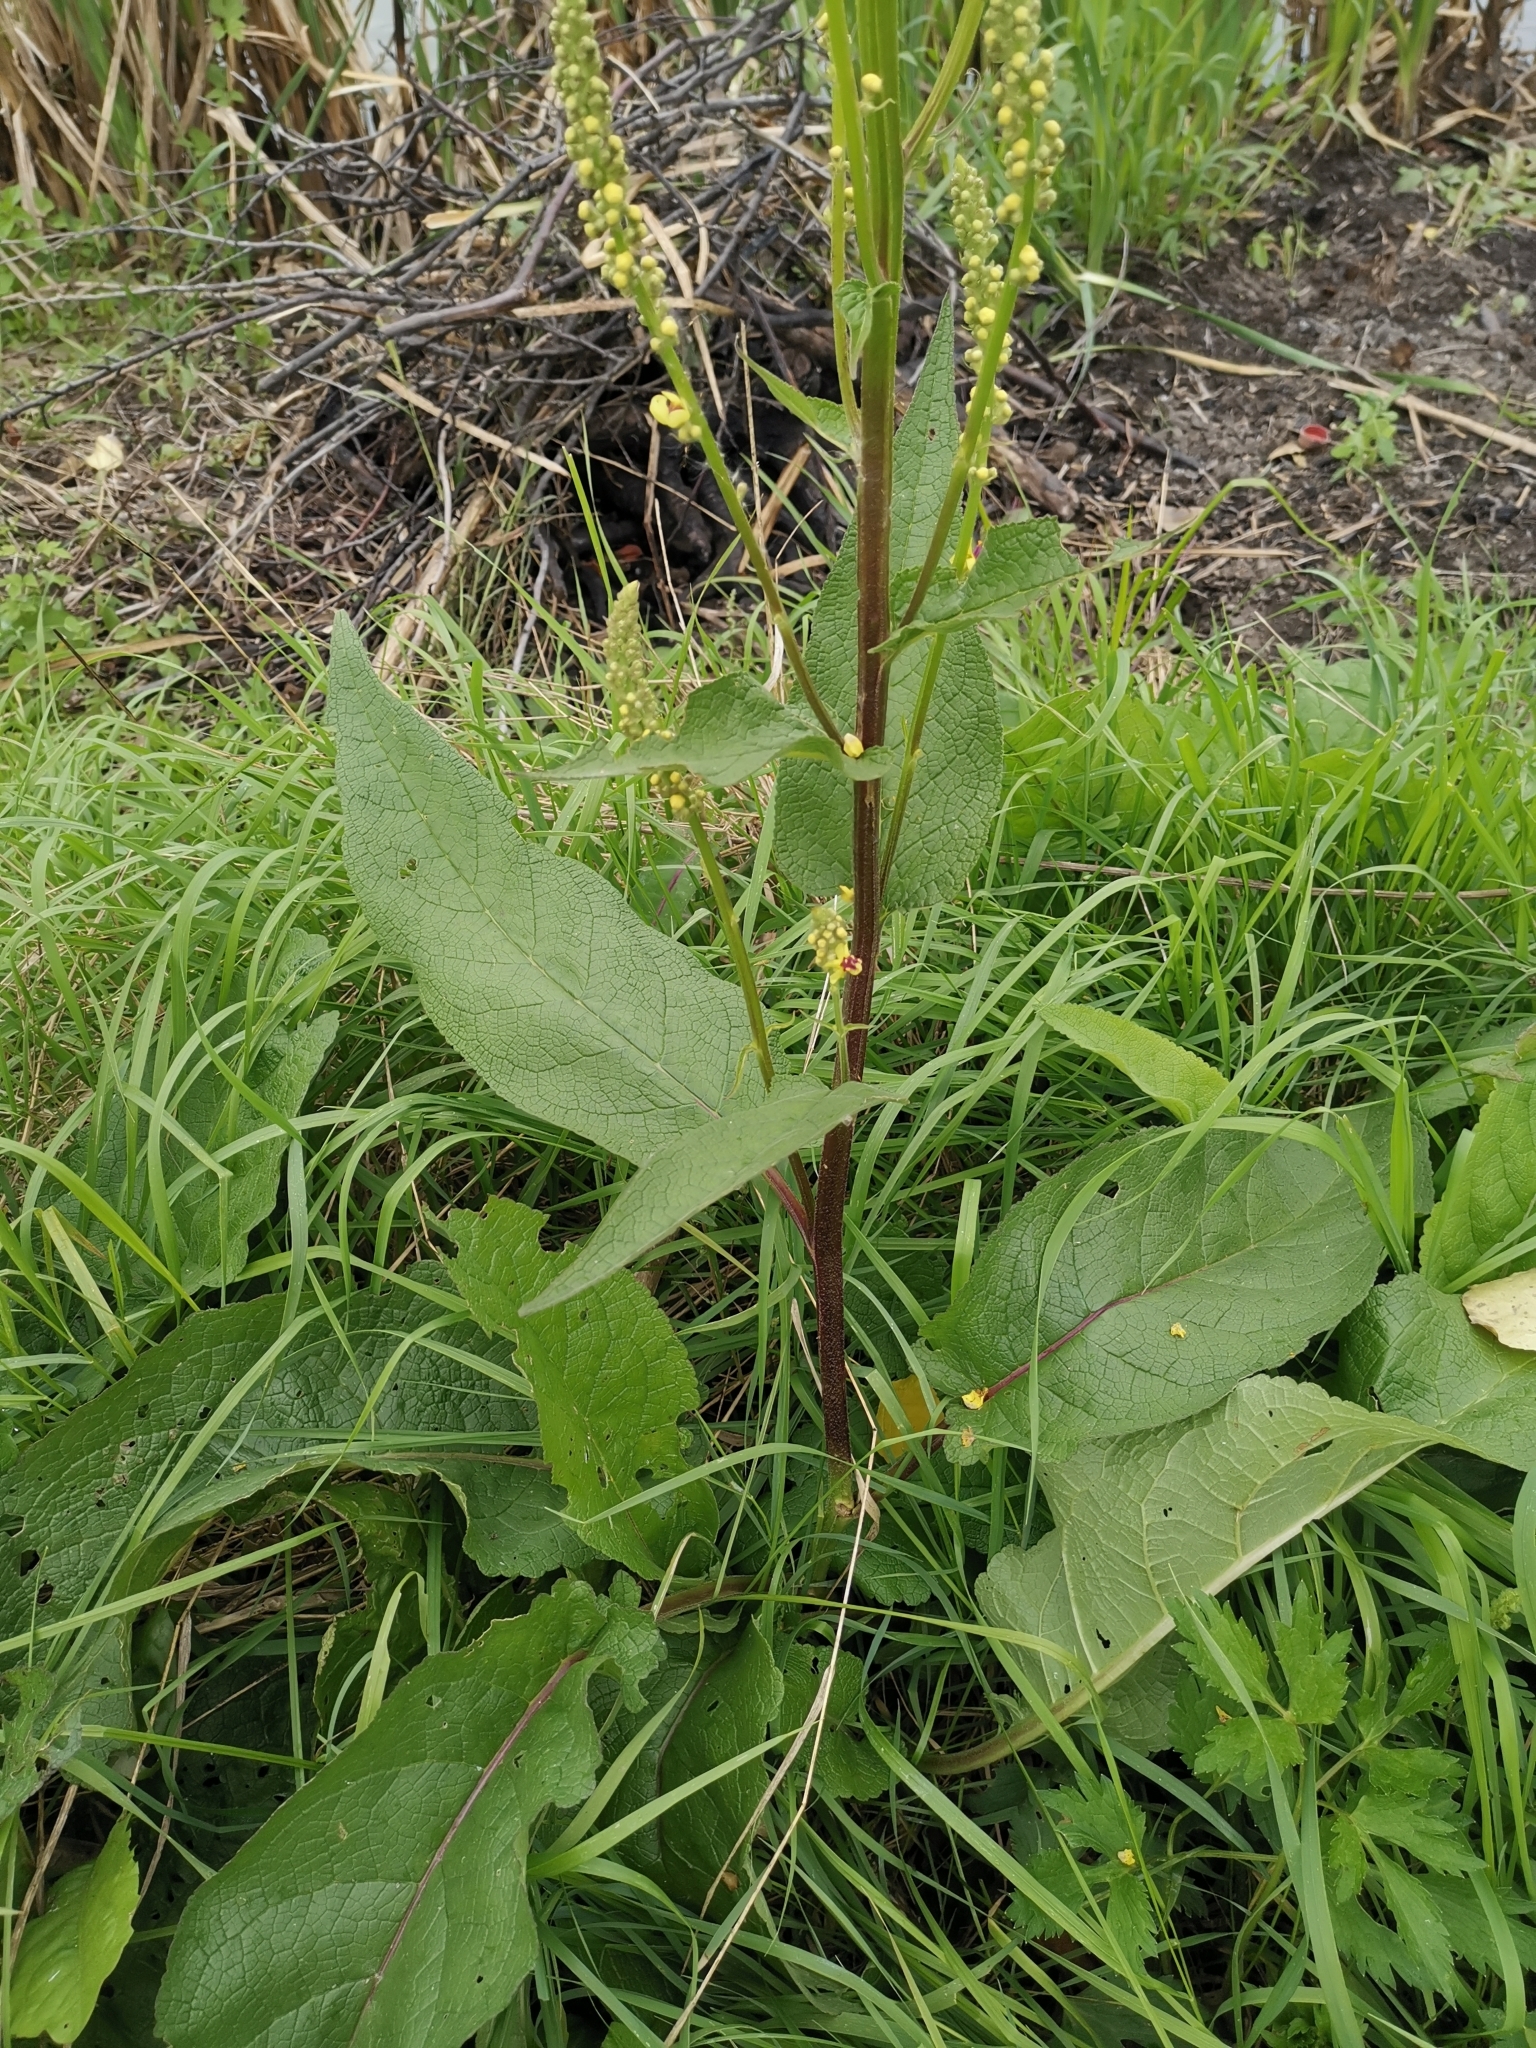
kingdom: Plantae
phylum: Tracheophyta
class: Magnoliopsida
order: Lamiales
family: Scrophulariaceae
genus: Verbascum
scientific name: Verbascum nigrum
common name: Dark mullein
